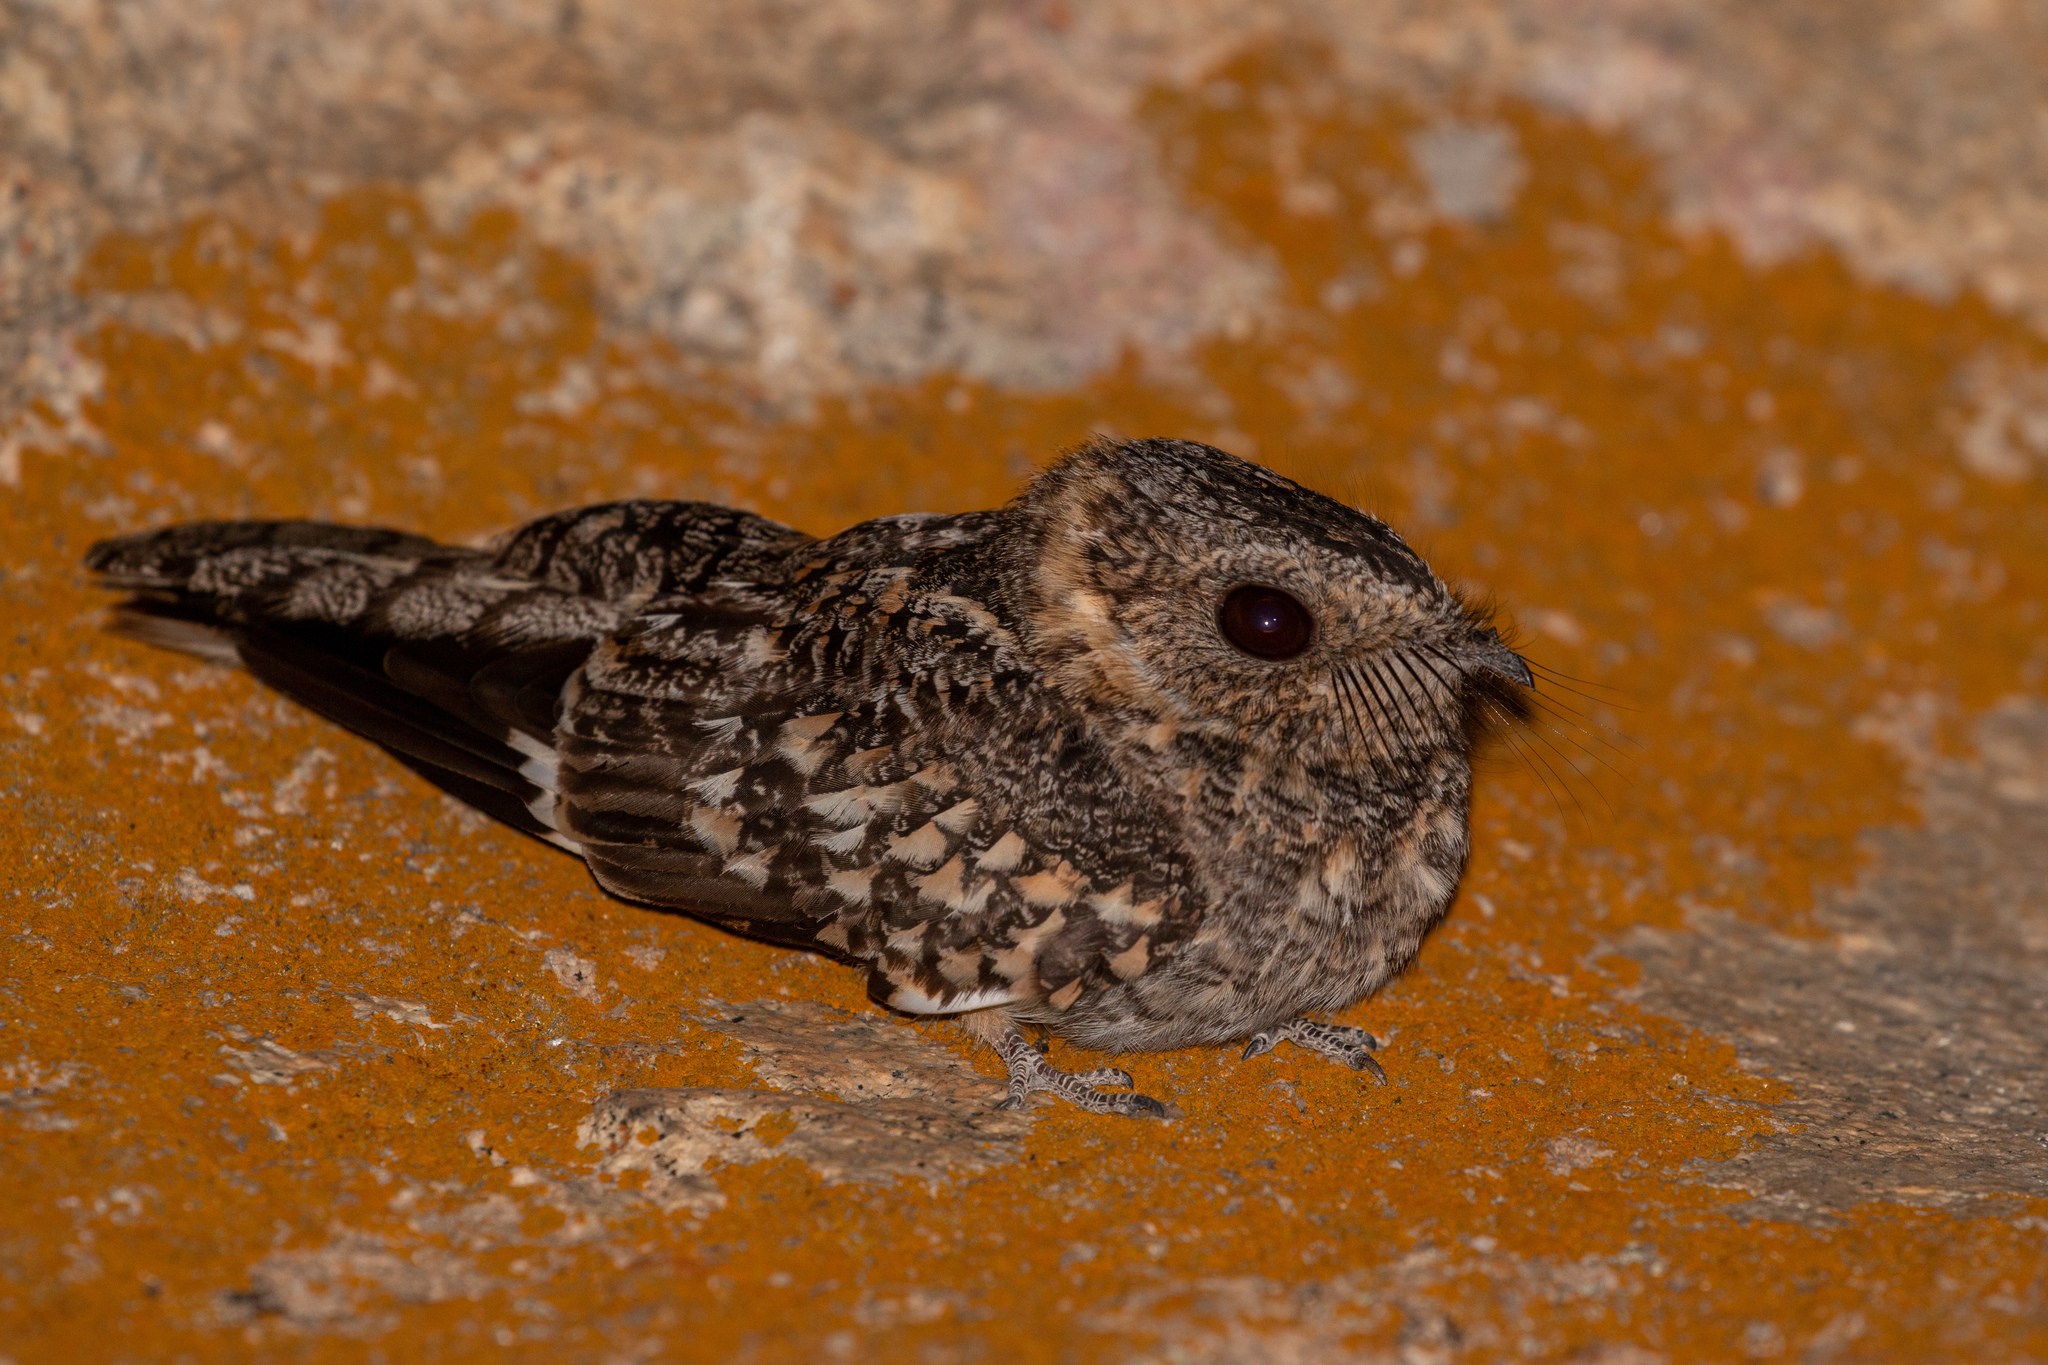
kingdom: Animalia
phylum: Chordata
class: Aves
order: Caprimulgiformes
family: Caprimulgidae
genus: Systellura
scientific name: Systellura longirostris
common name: Band-winged nightjar
